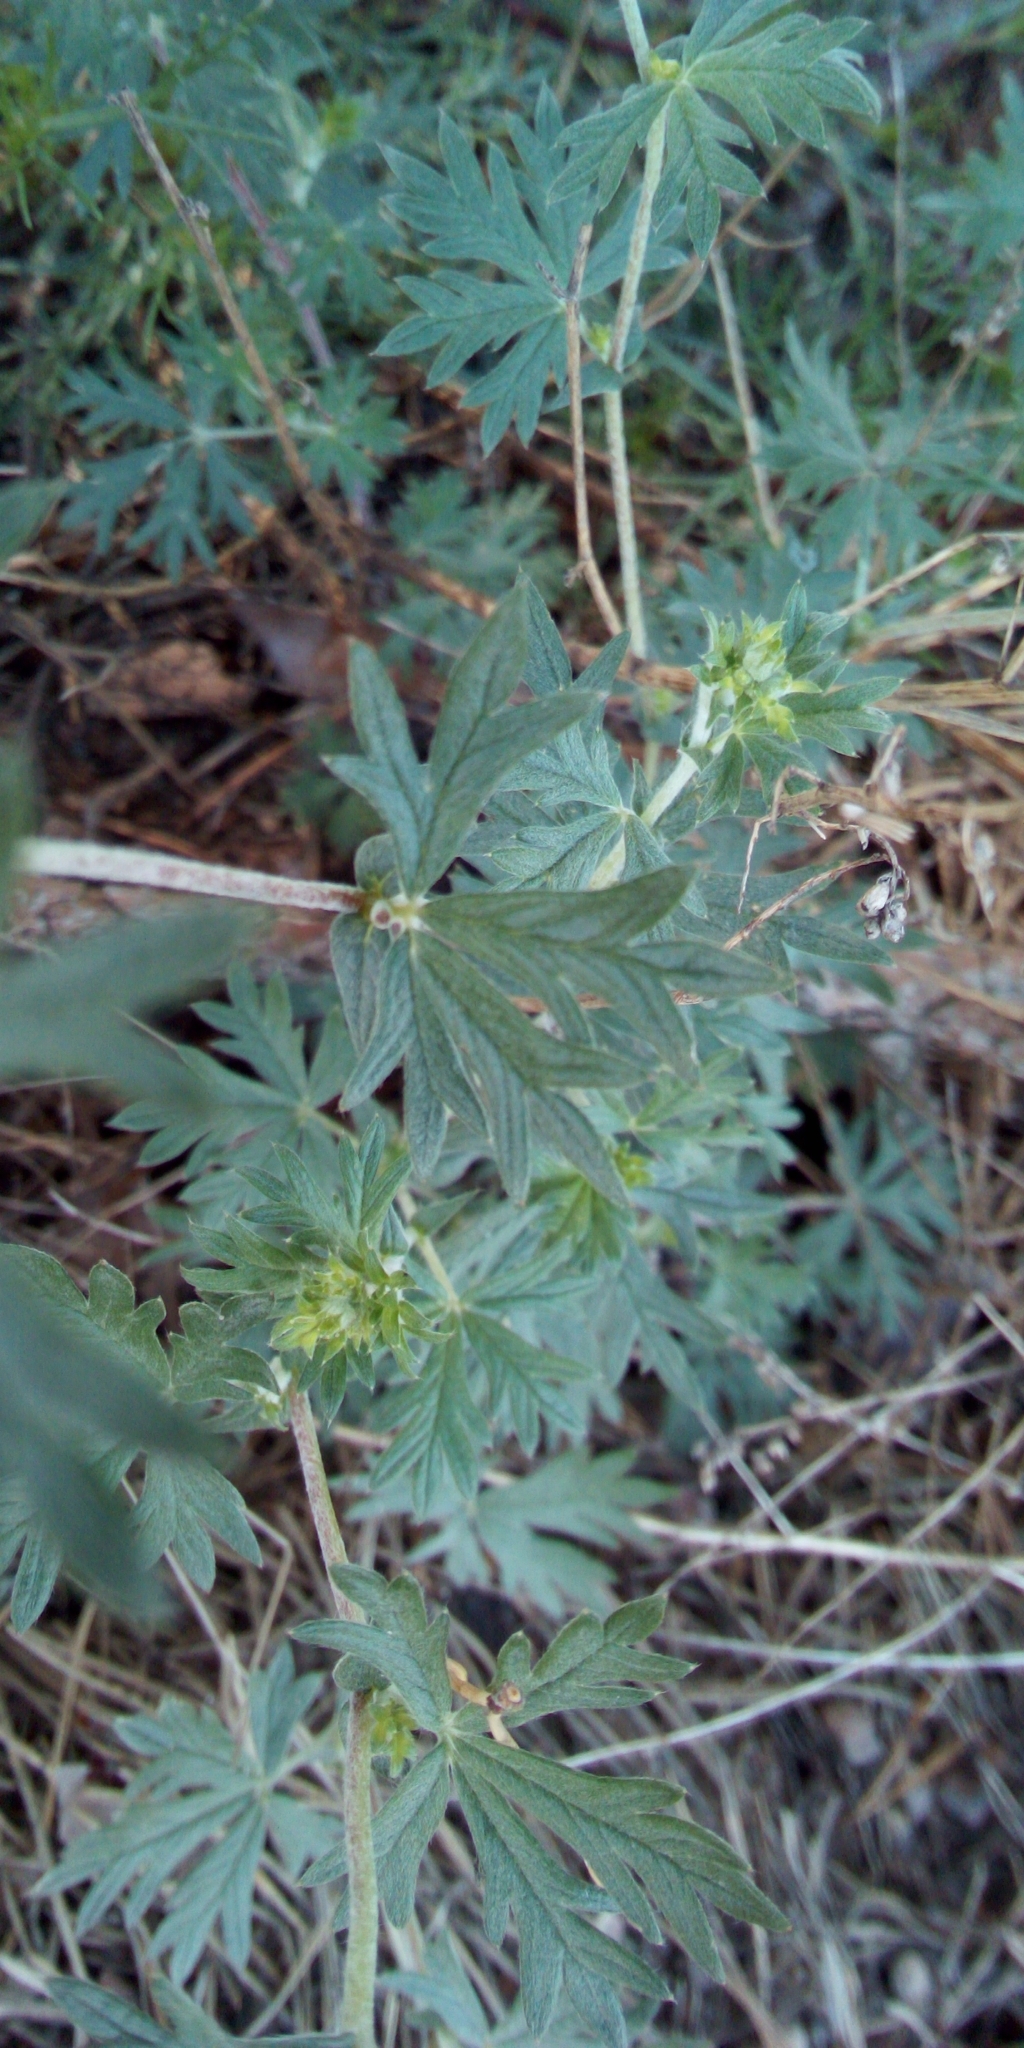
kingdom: Plantae
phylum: Tracheophyta
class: Magnoliopsida
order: Rosales
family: Rosaceae
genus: Potentilla
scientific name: Potentilla argentea
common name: Hoary cinquefoil
